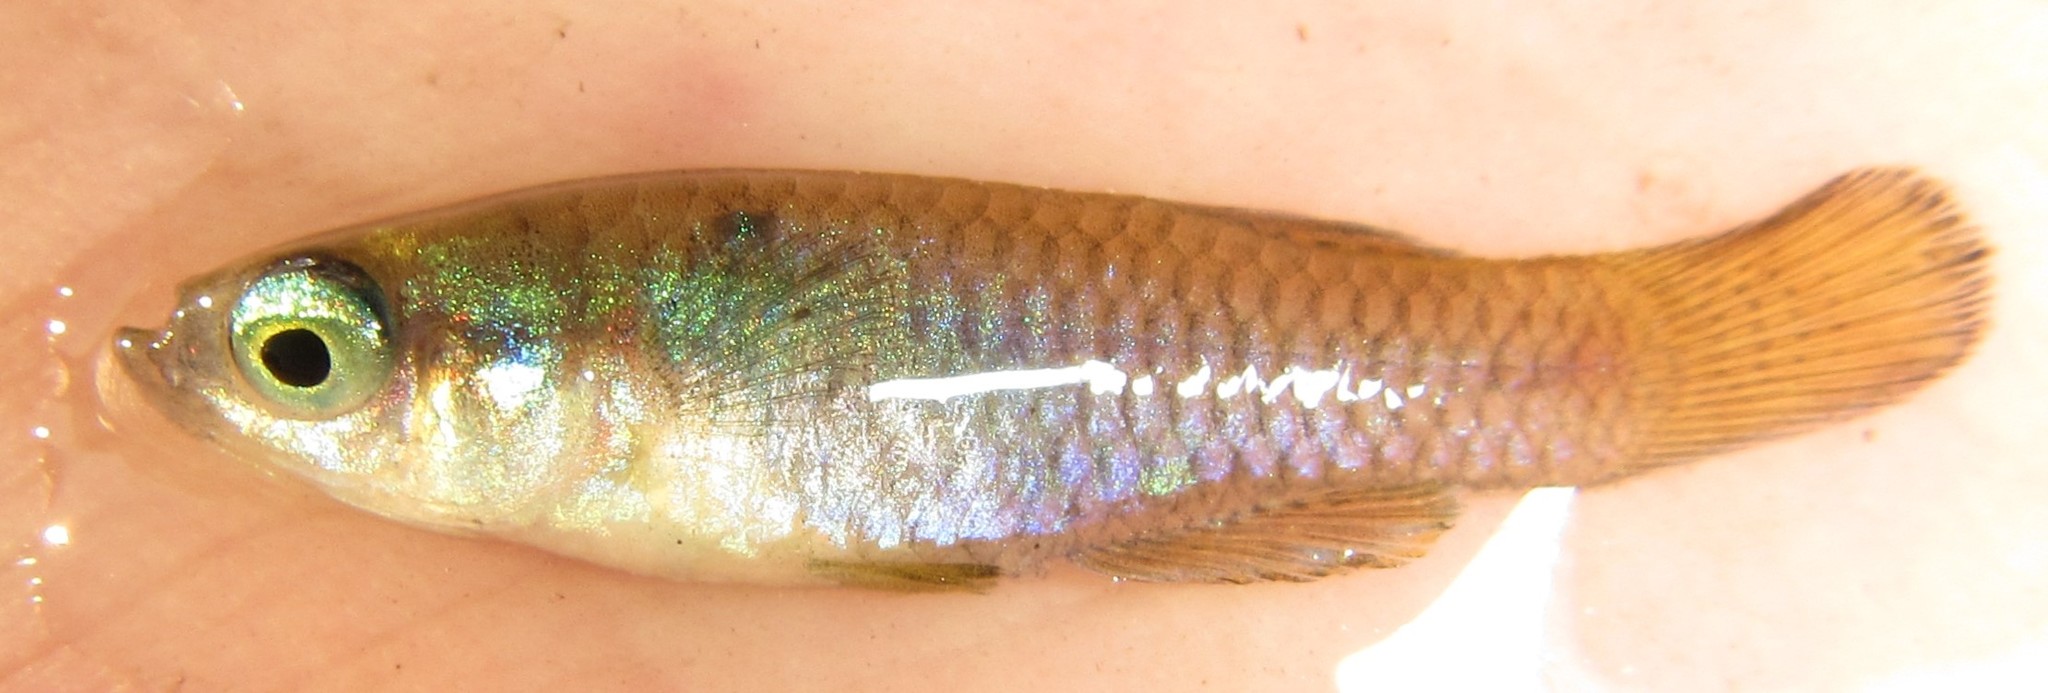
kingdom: Animalia
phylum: Chordata
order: Cyprinodontiformes
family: Poeciliidae
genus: Micropanchax
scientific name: Micropanchax hutereaui
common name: Meshscaled topminnow
